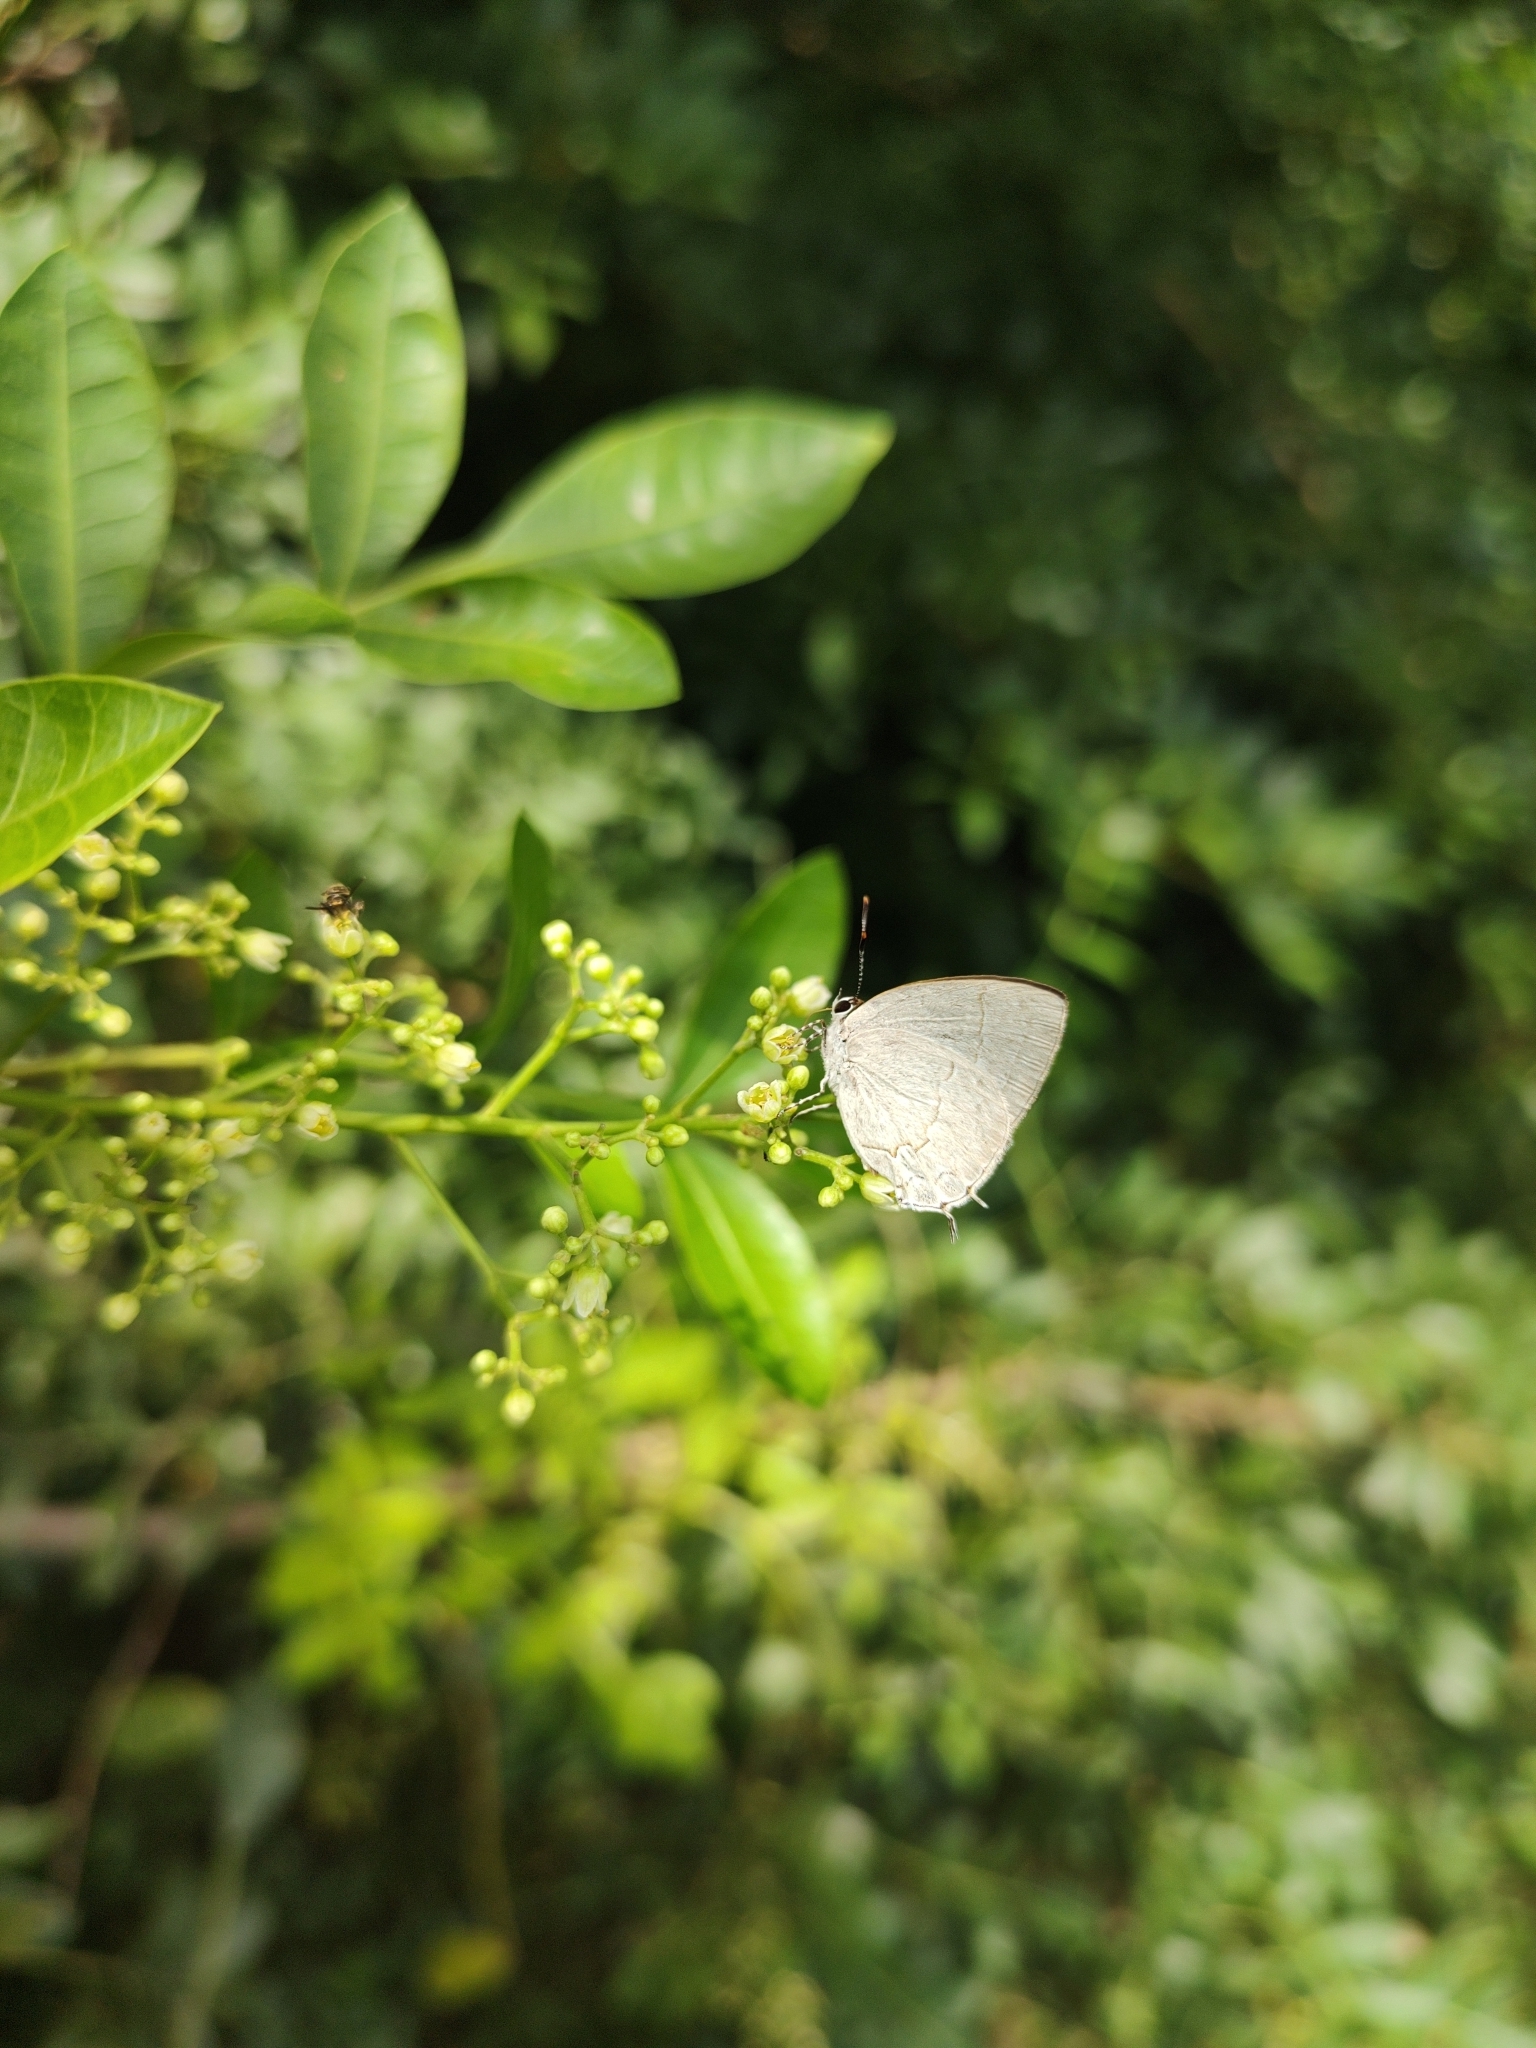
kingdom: Animalia
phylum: Arthropoda
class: Insecta
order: Lepidoptera
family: Lycaenidae
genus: Symbiopsis
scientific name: Symbiopsis lenitas
